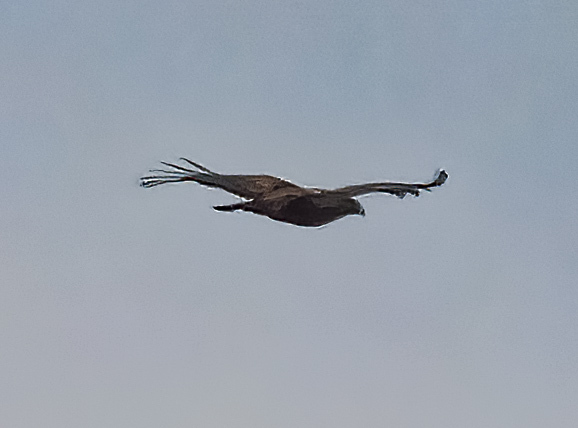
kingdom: Animalia
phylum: Chordata
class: Aves
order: Accipitriformes
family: Accipitridae
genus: Haliaeetus
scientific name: Haliaeetus leucocephalus
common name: Bald eagle
